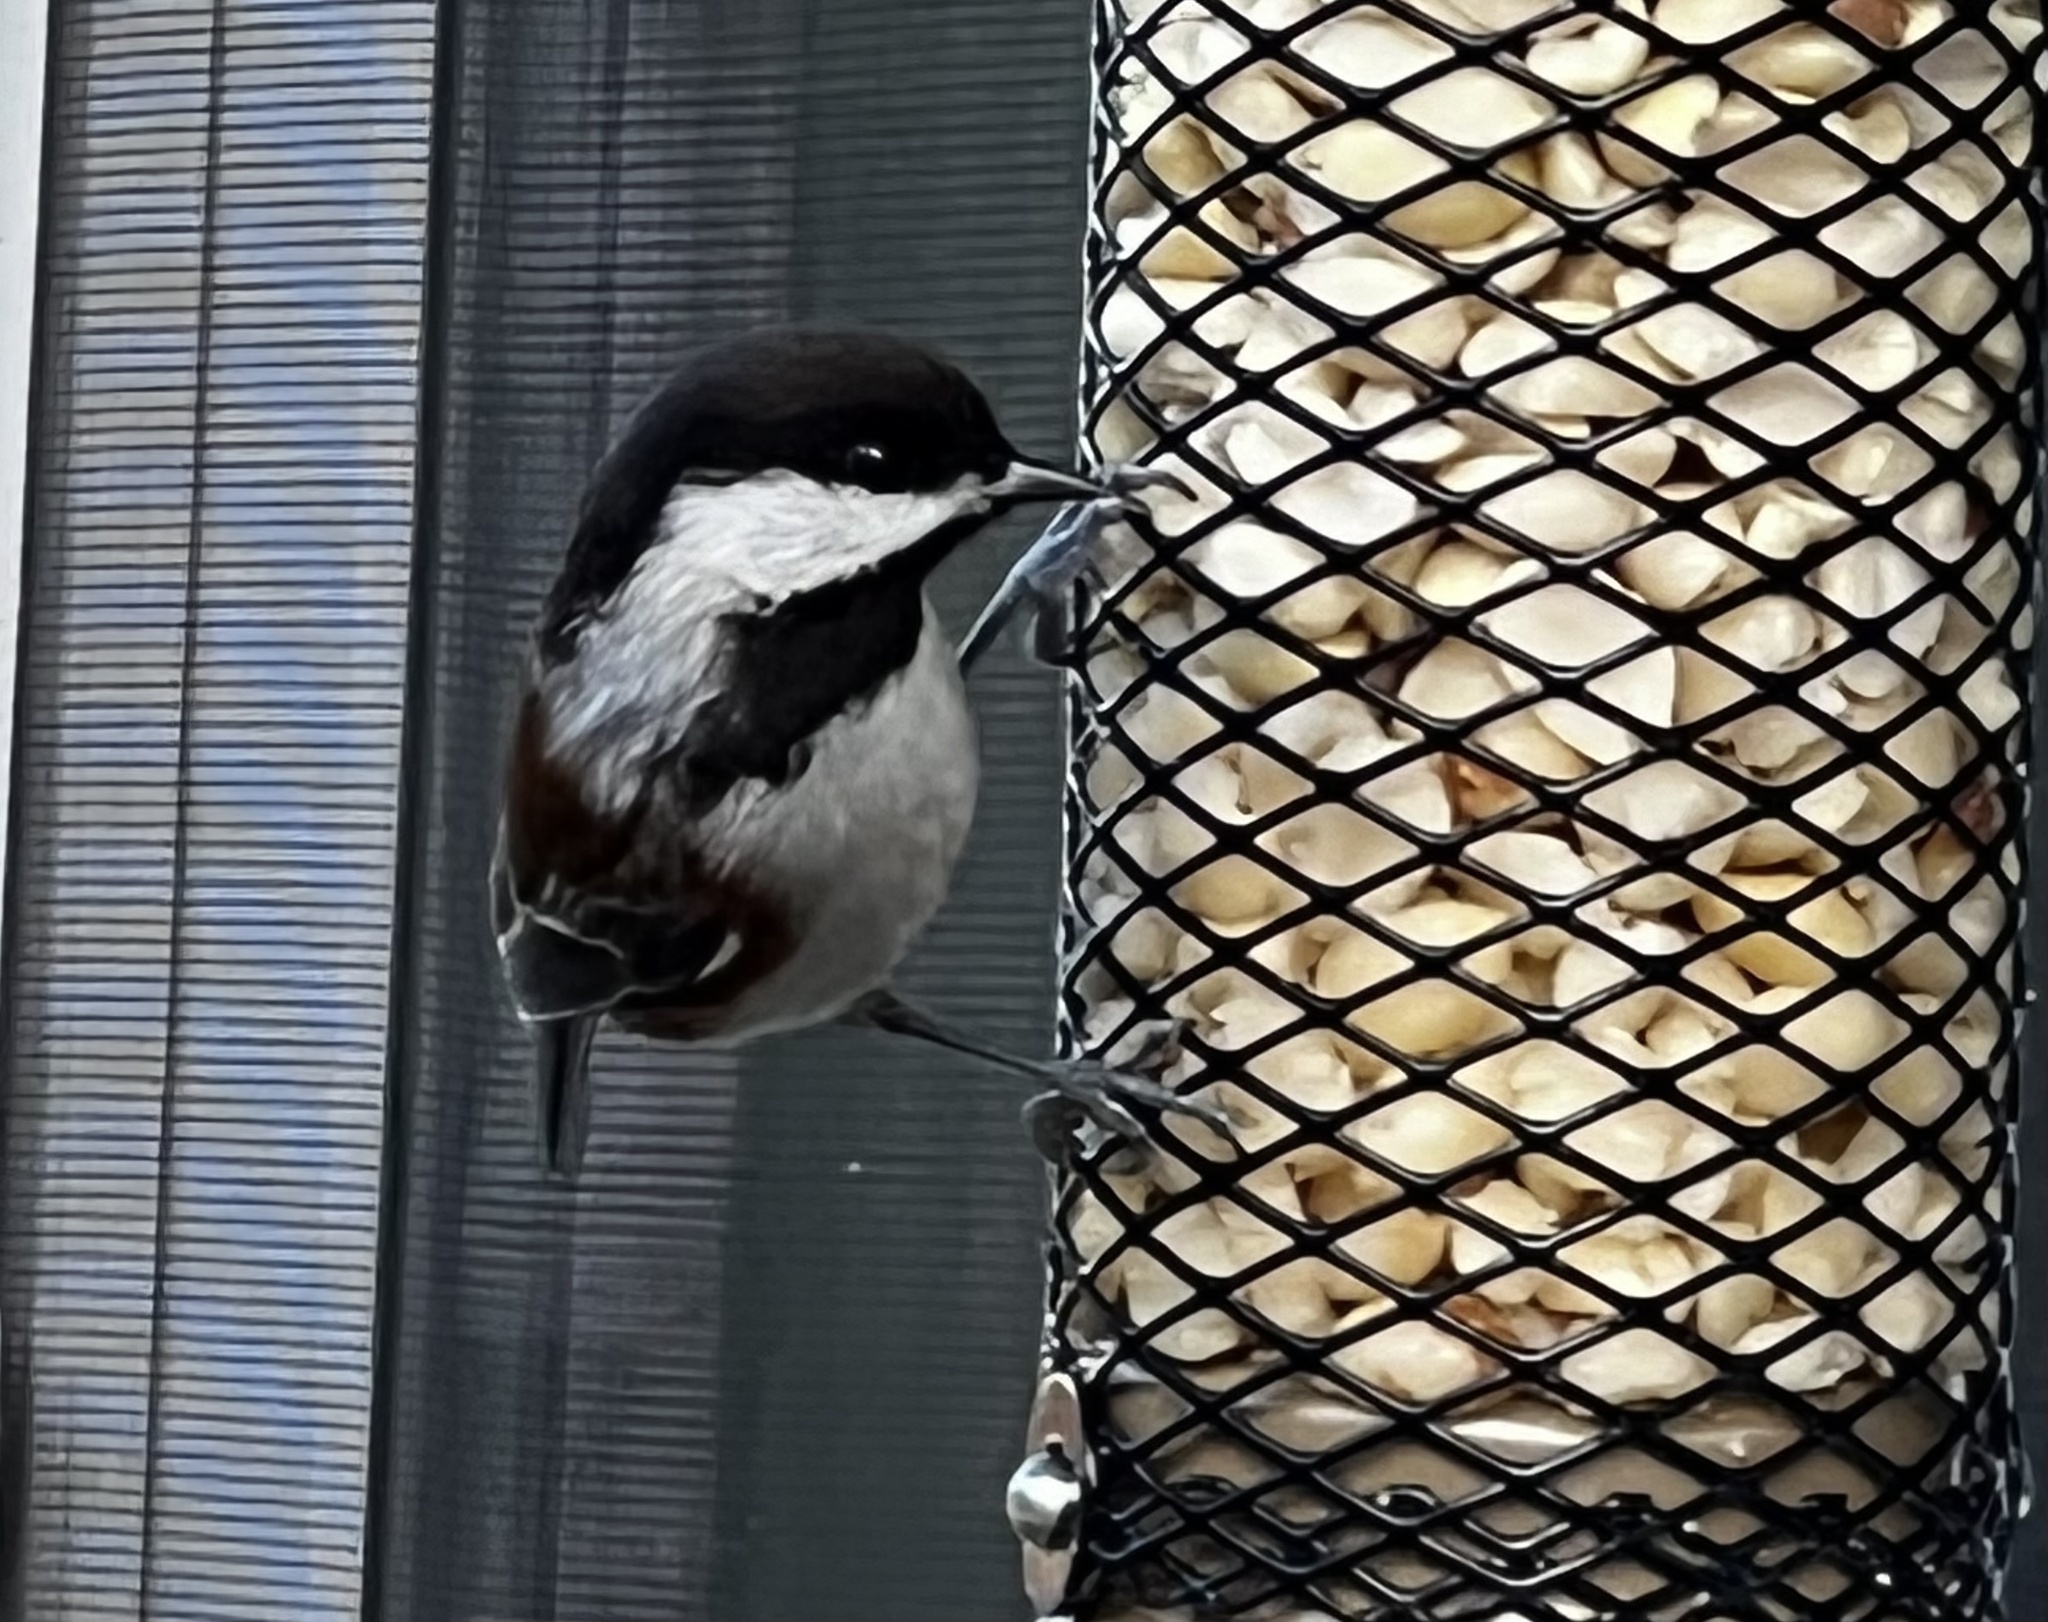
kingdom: Animalia
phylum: Chordata
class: Aves
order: Passeriformes
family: Paridae
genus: Poecile
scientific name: Poecile rufescens
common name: Chestnut-backed chickadee
